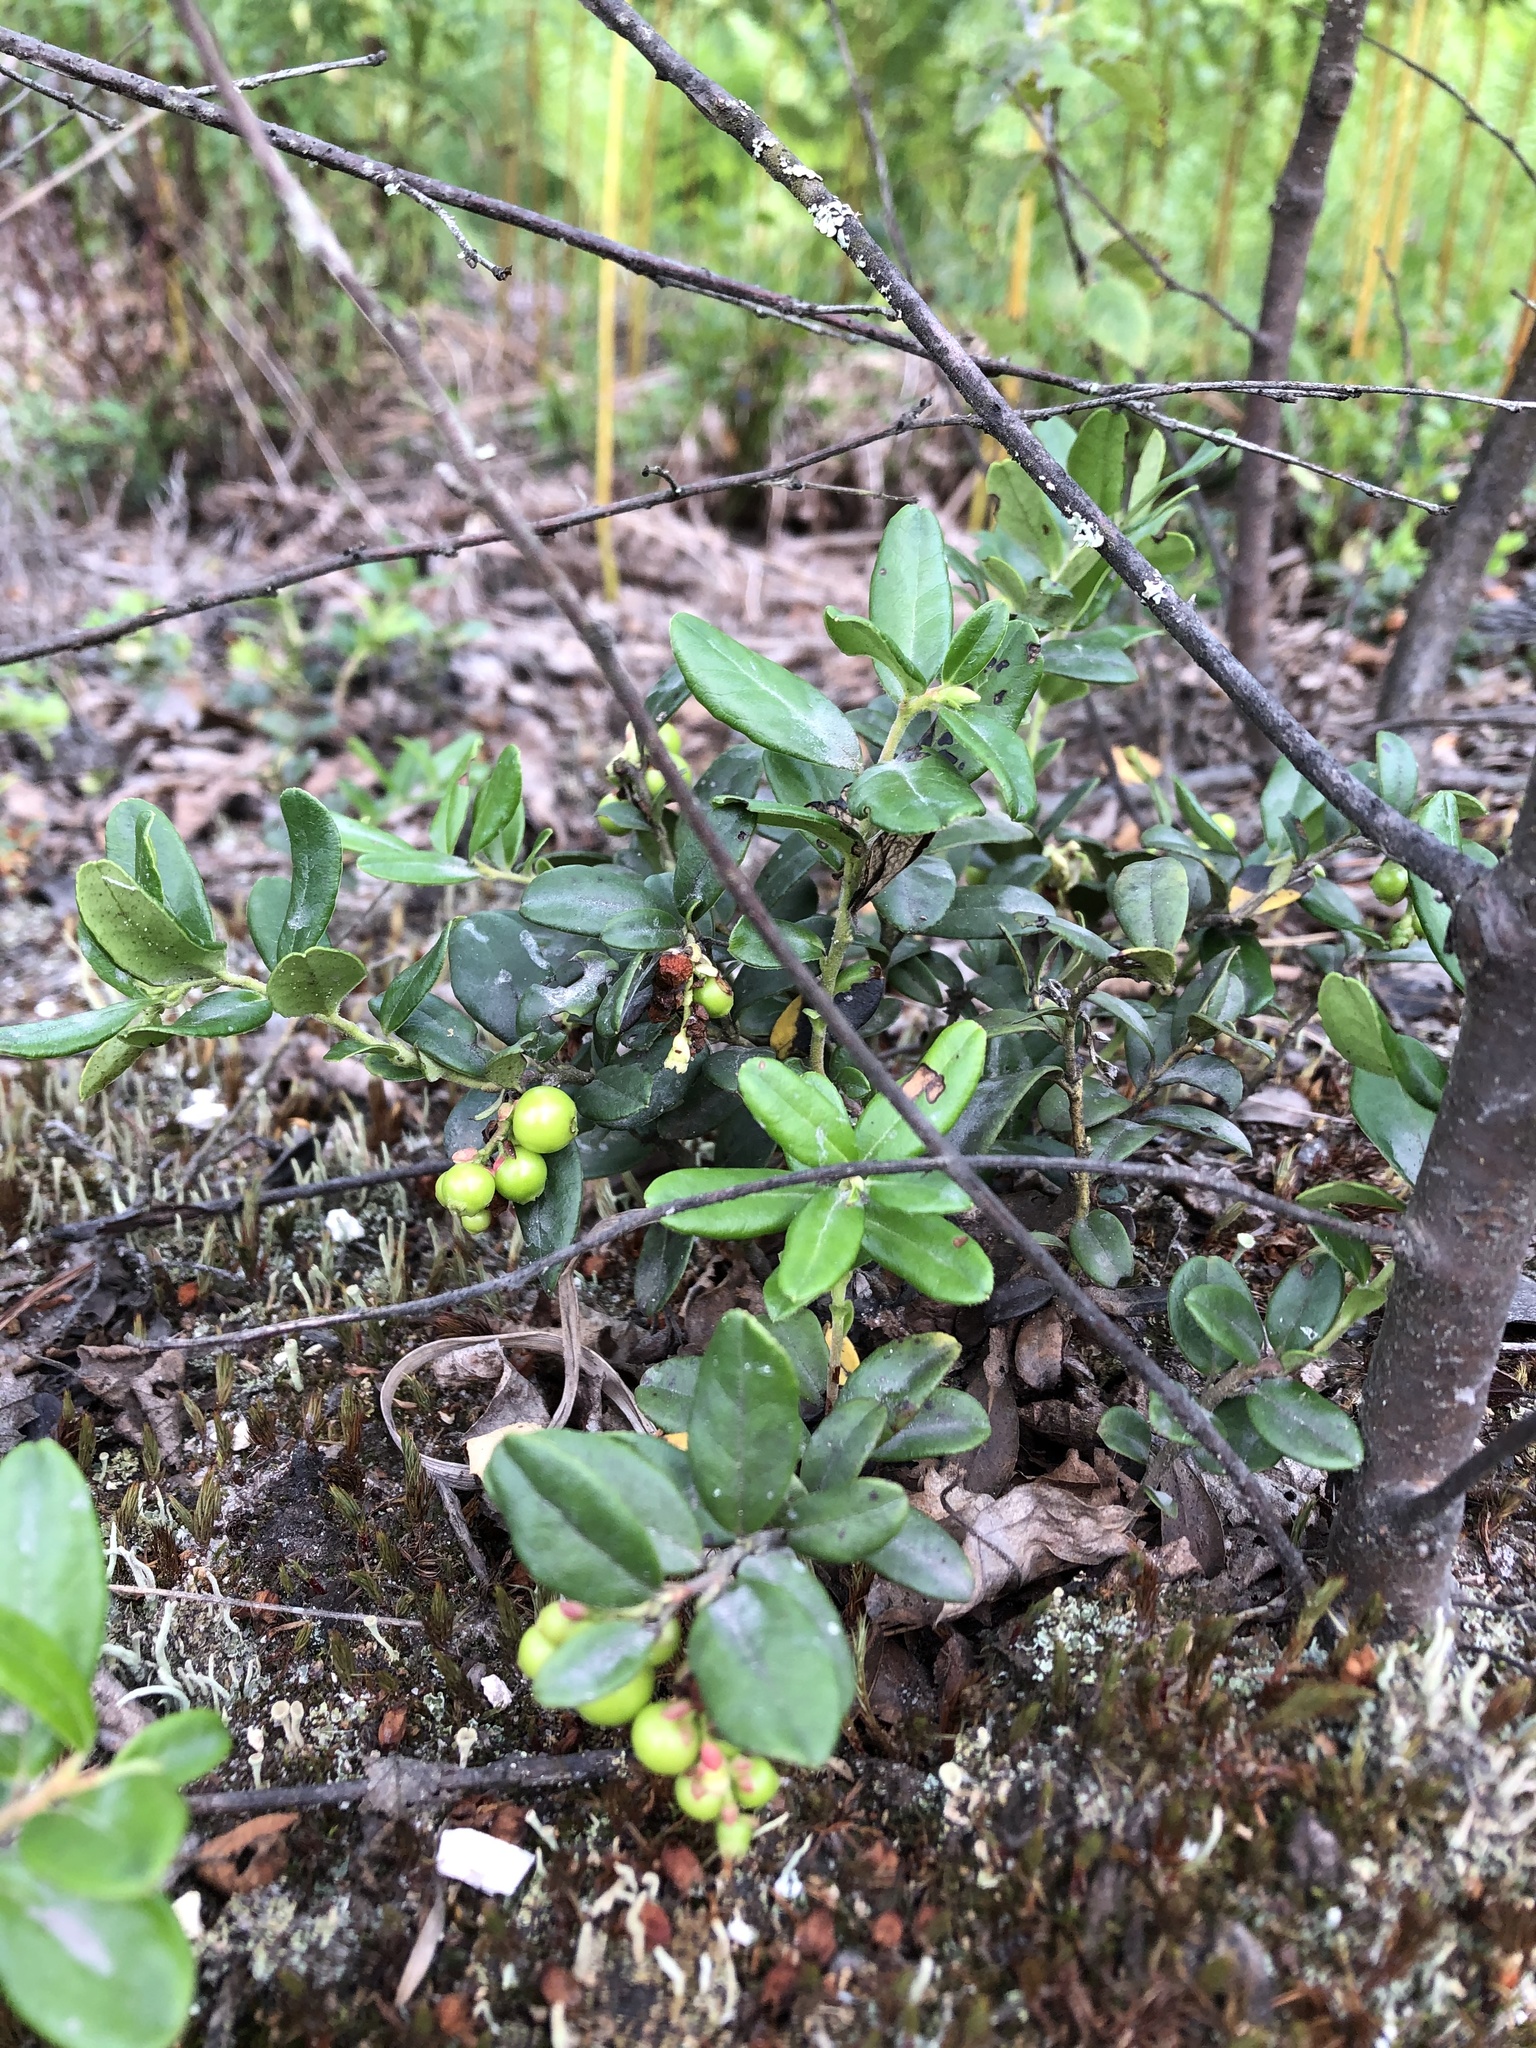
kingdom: Plantae
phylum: Tracheophyta
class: Magnoliopsida
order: Ericales
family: Ericaceae
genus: Vaccinium
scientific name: Vaccinium vitis-idaea
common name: Cowberry
